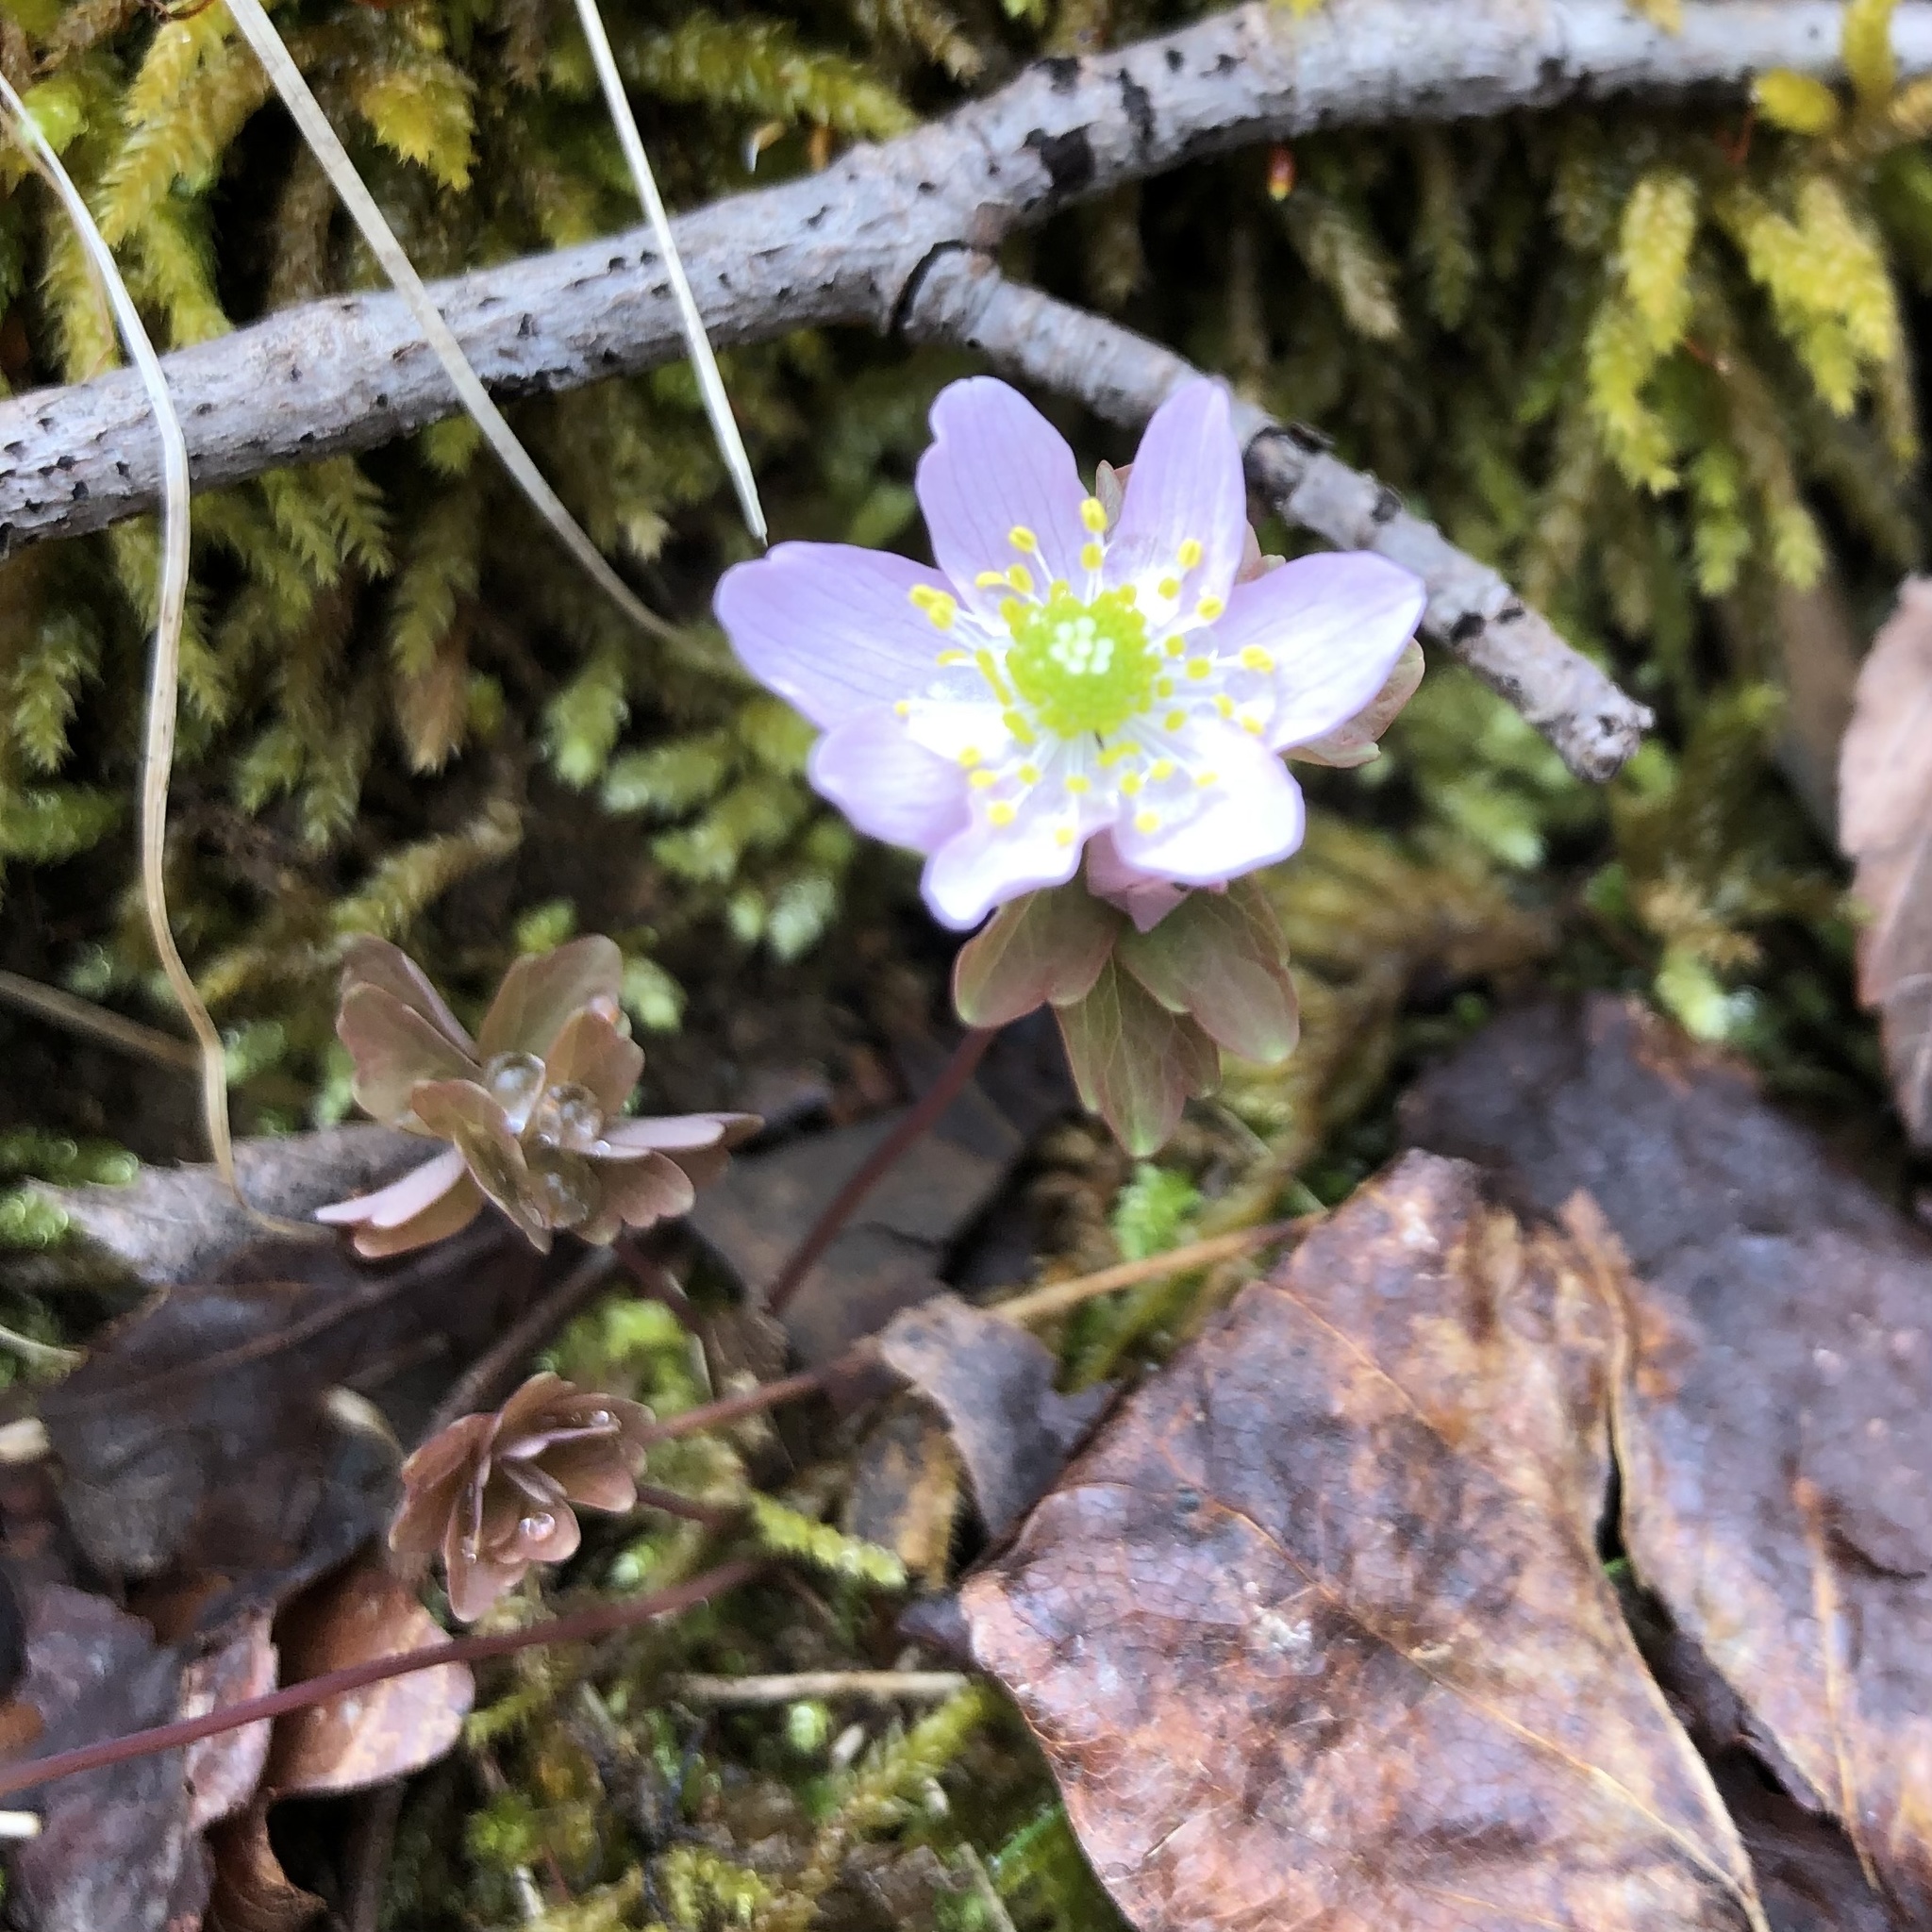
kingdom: Plantae
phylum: Tracheophyta
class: Magnoliopsida
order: Ranunculales
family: Ranunculaceae
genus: Thalictrum
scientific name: Thalictrum thalictroides
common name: Rue-anemone
